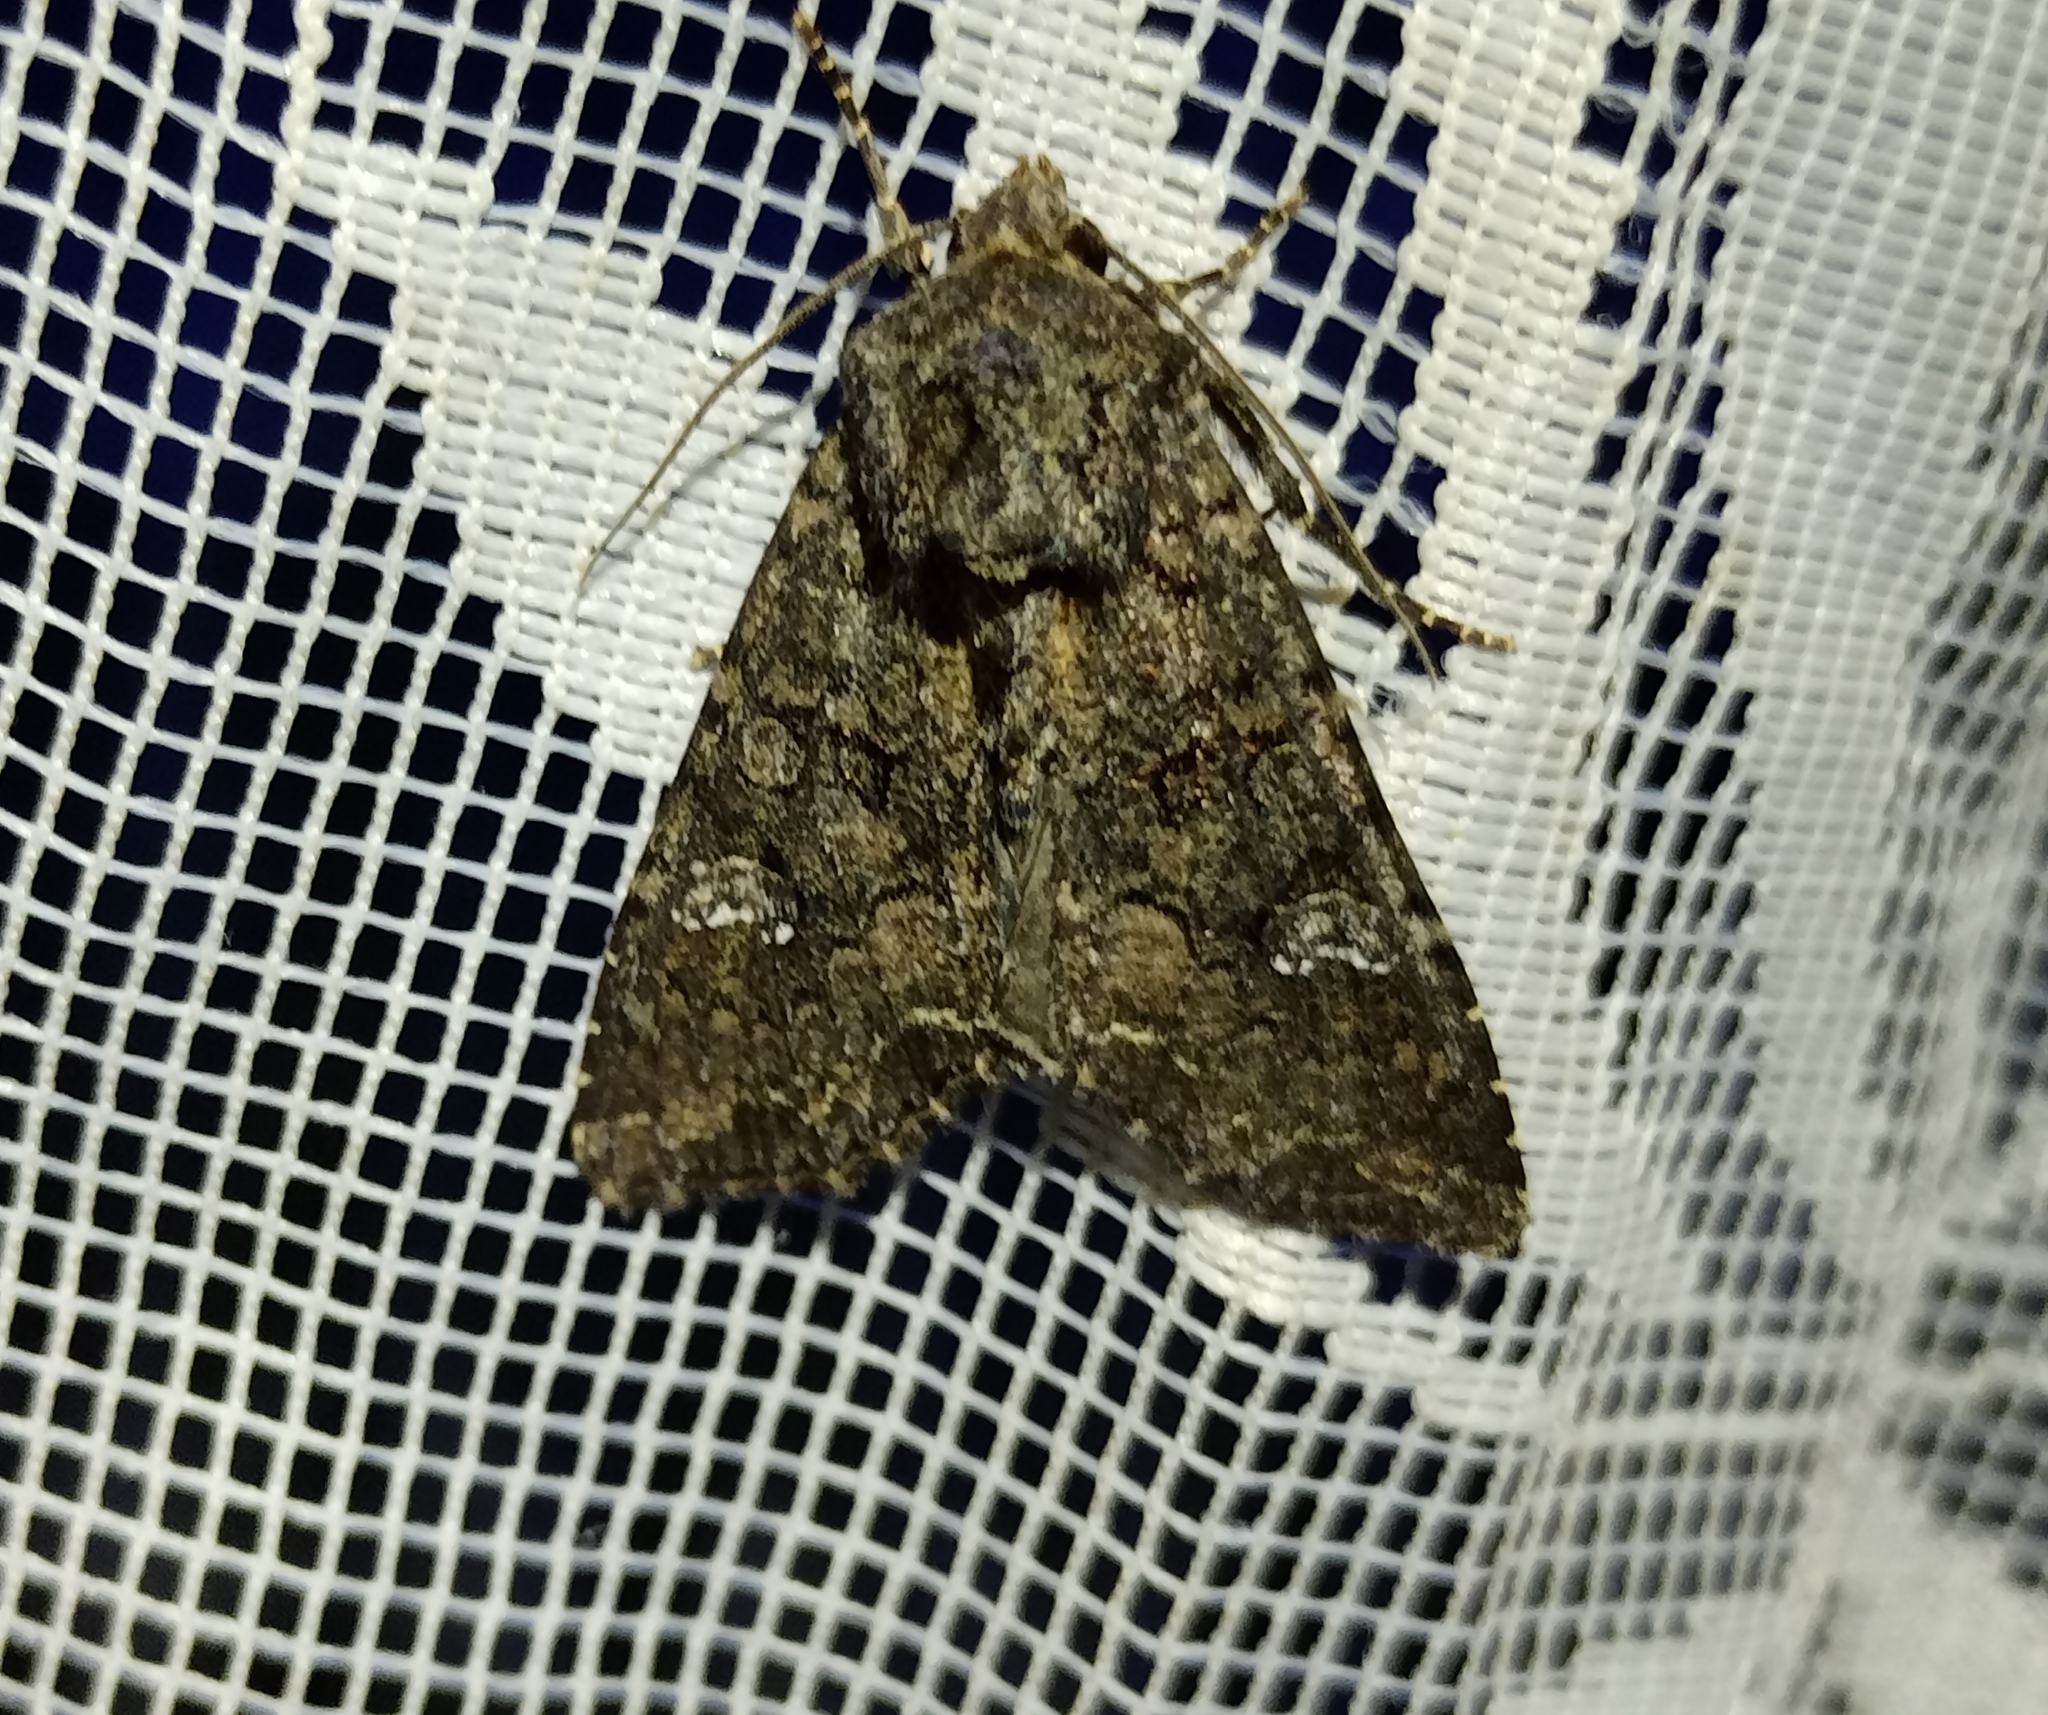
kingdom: Animalia
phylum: Arthropoda
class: Insecta
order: Lepidoptera
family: Noctuidae
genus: Mamestra
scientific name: Mamestra brassicae
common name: Cabbage moth
